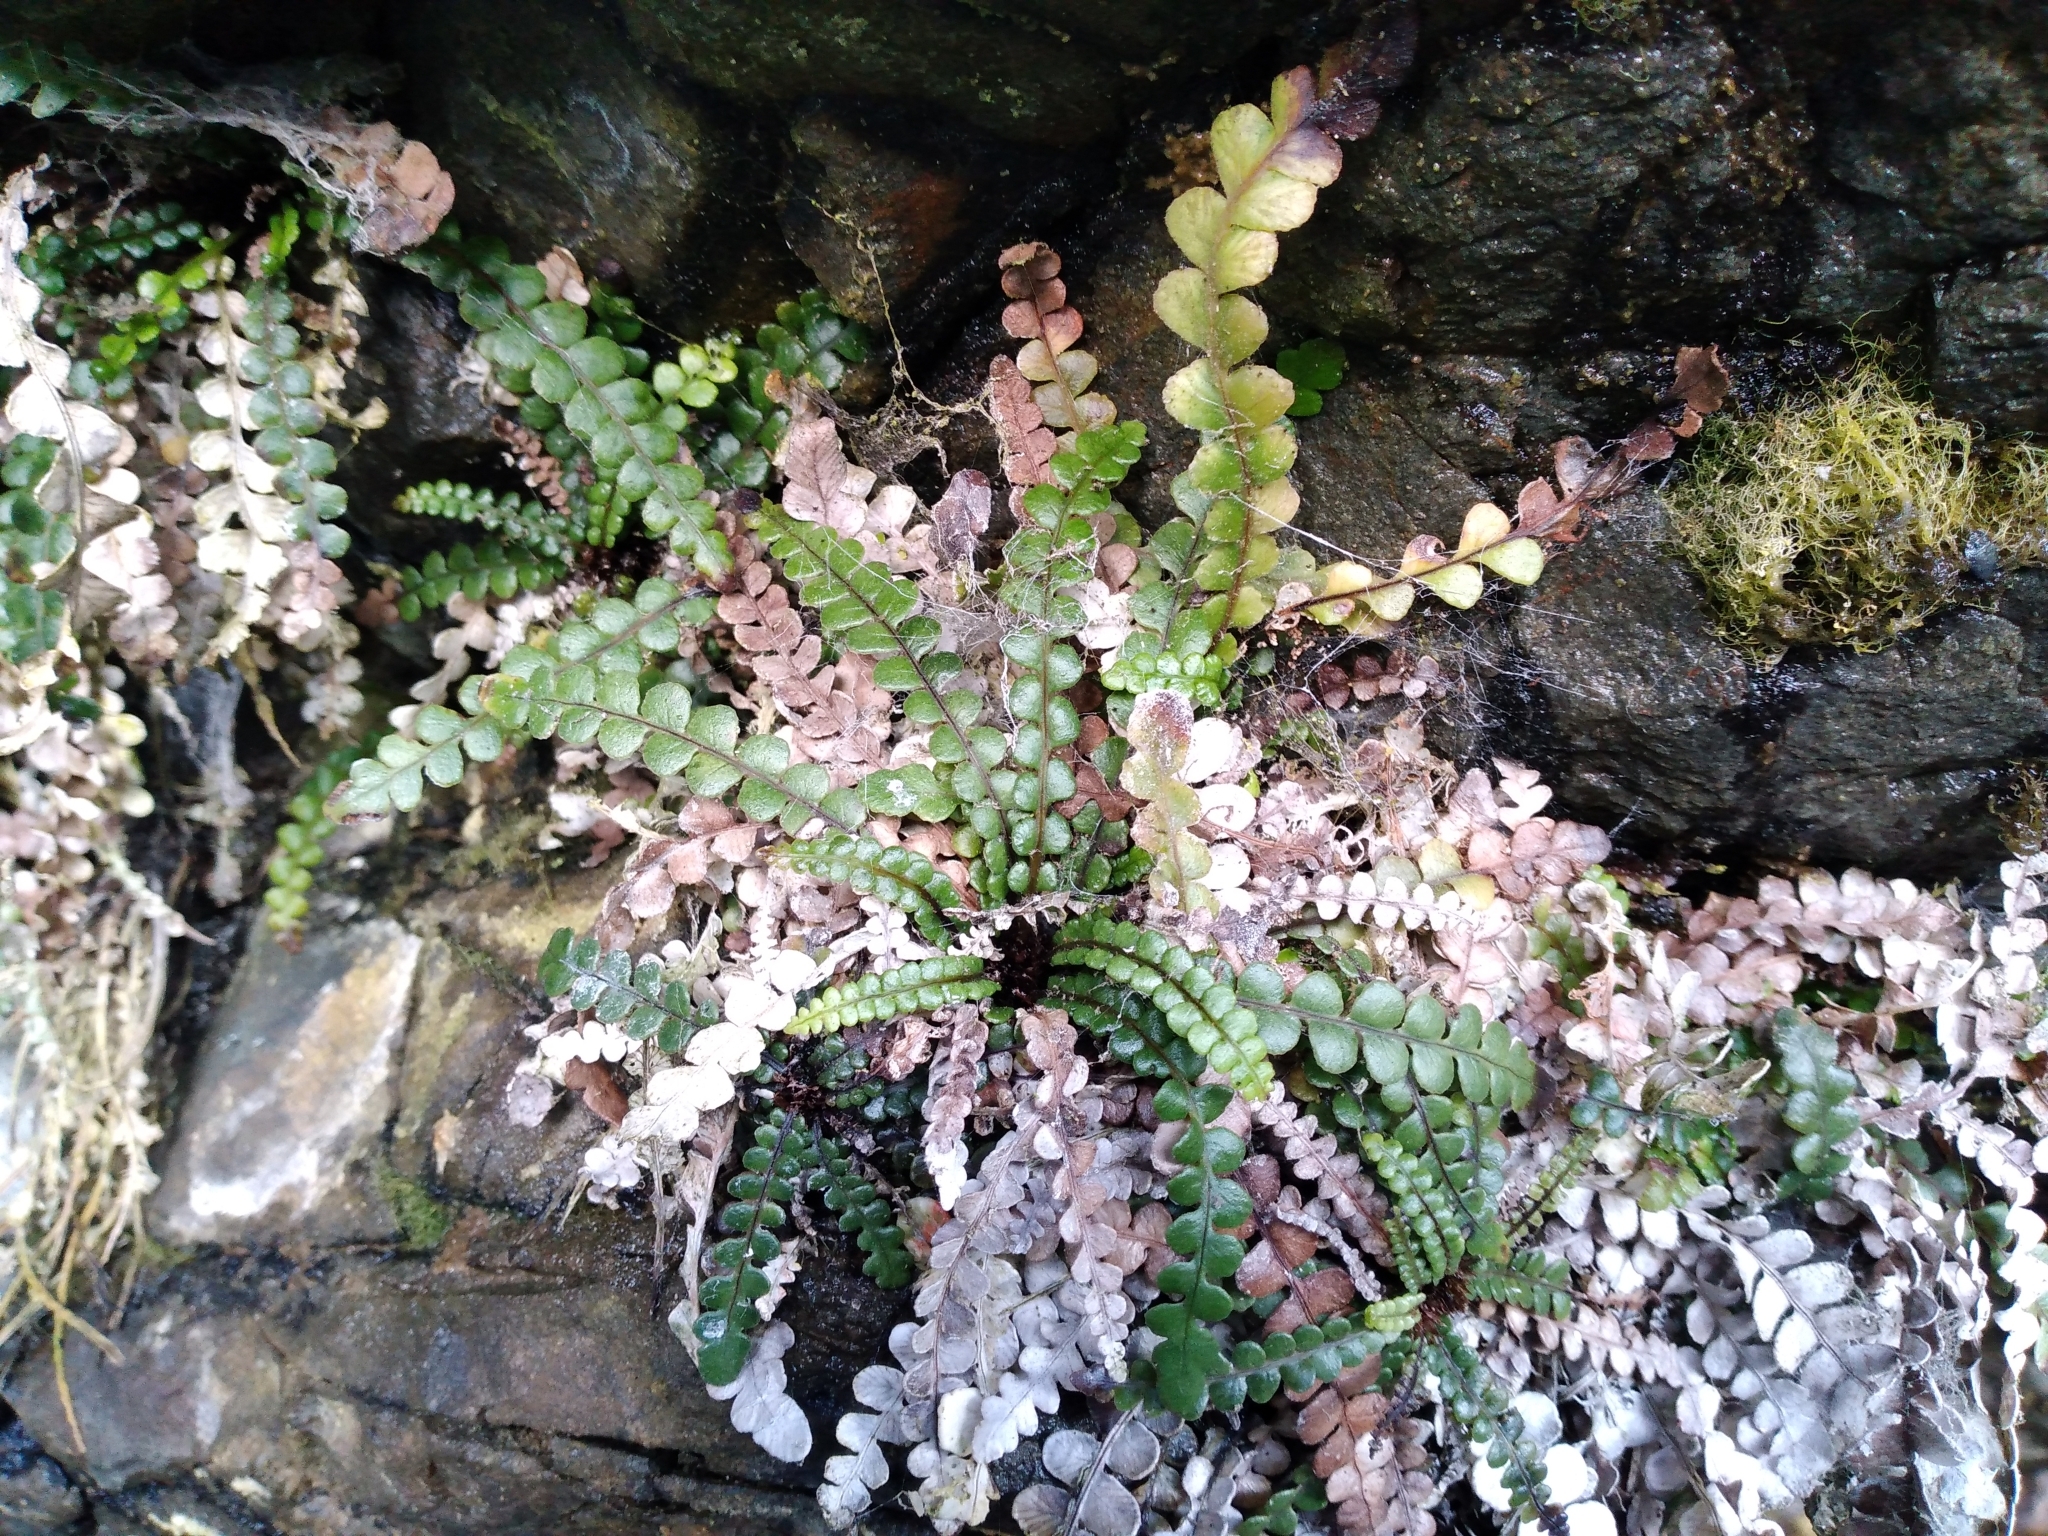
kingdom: Plantae
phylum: Tracheophyta
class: Polypodiopsida
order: Polypodiales
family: Blechnaceae
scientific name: Blechnaceae
